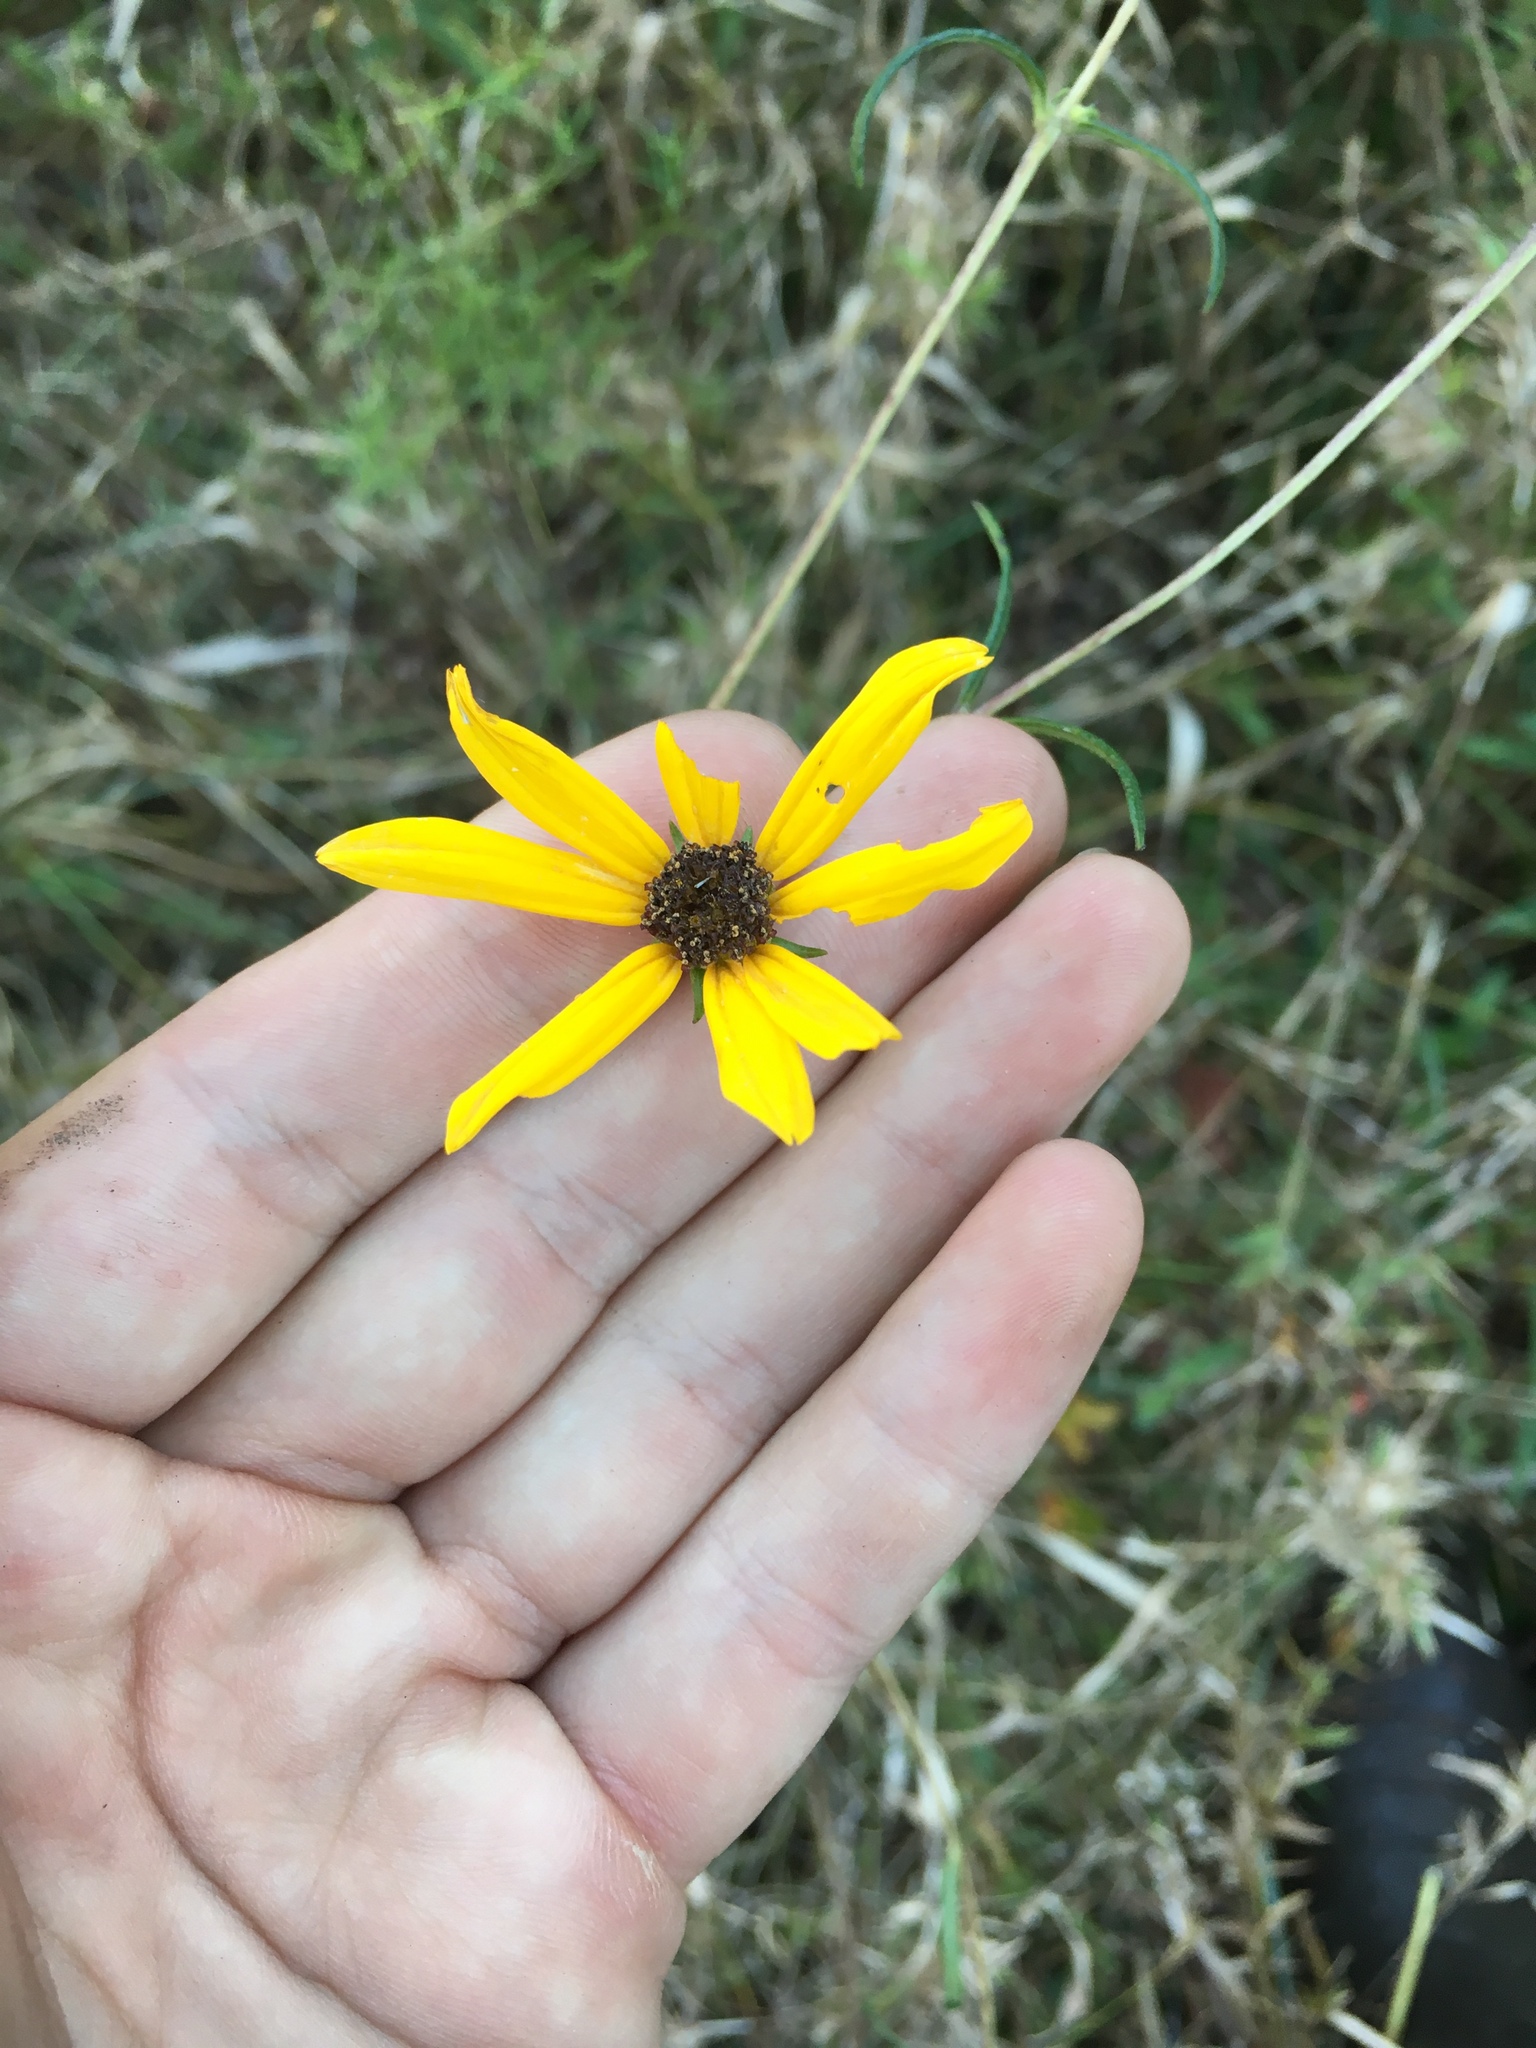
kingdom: Plantae
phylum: Tracheophyta
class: Magnoliopsida
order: Asterales
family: Asteraceae
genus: Helianthus
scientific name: Helianthus angustifolius
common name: Swamp sunflower
